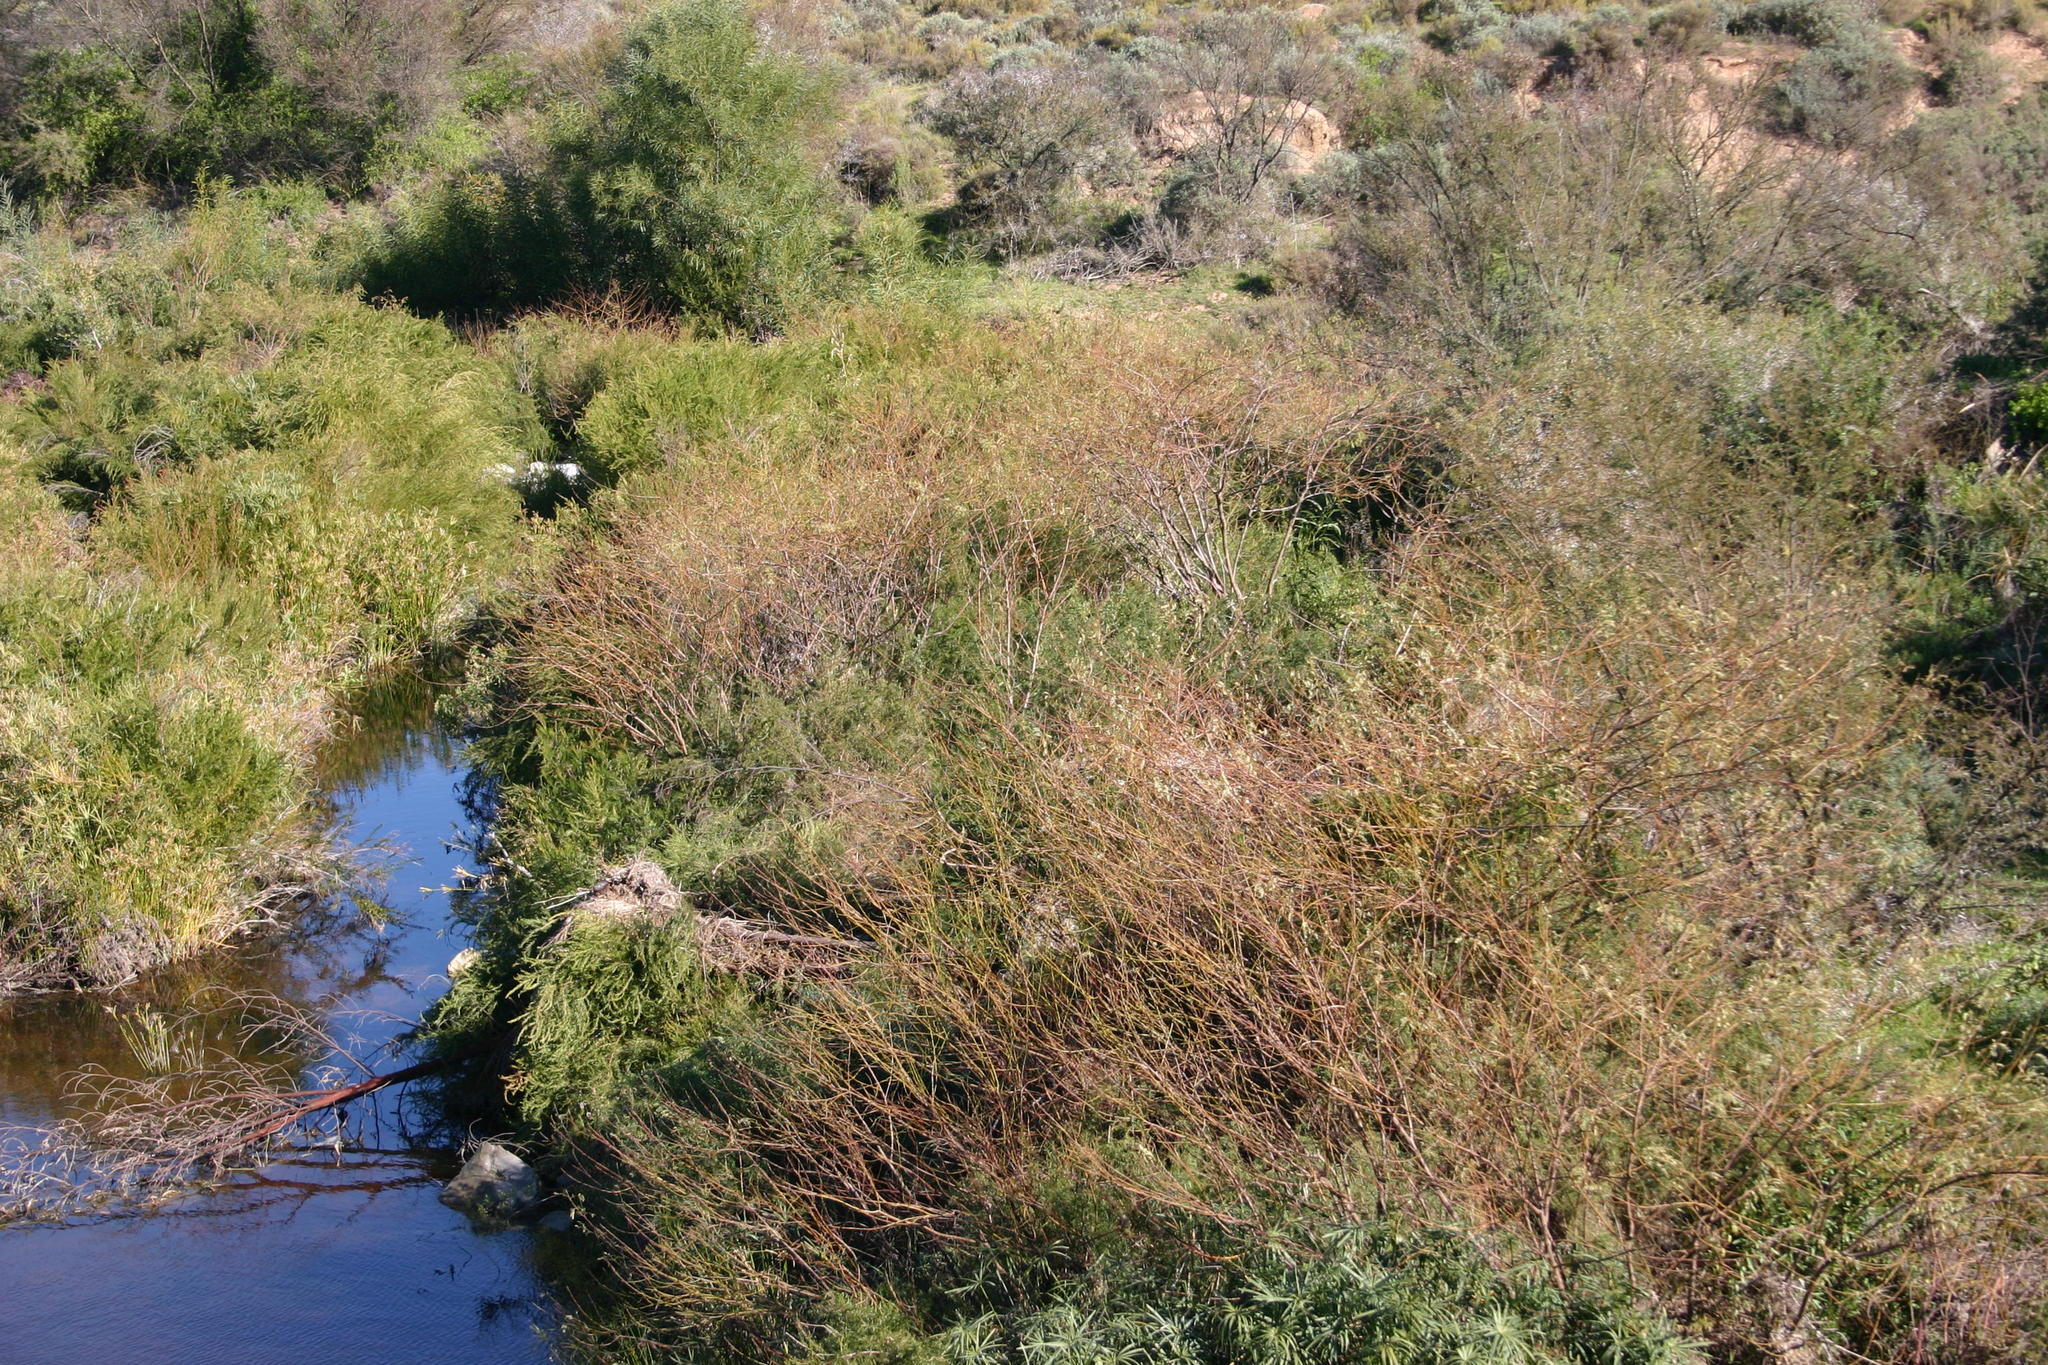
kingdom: Plantae
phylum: Tracheophyta
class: Magnoliopsida
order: Fabales
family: Fabaceae
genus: Sesbania
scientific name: Sesbania punicea
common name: Rattlebox
